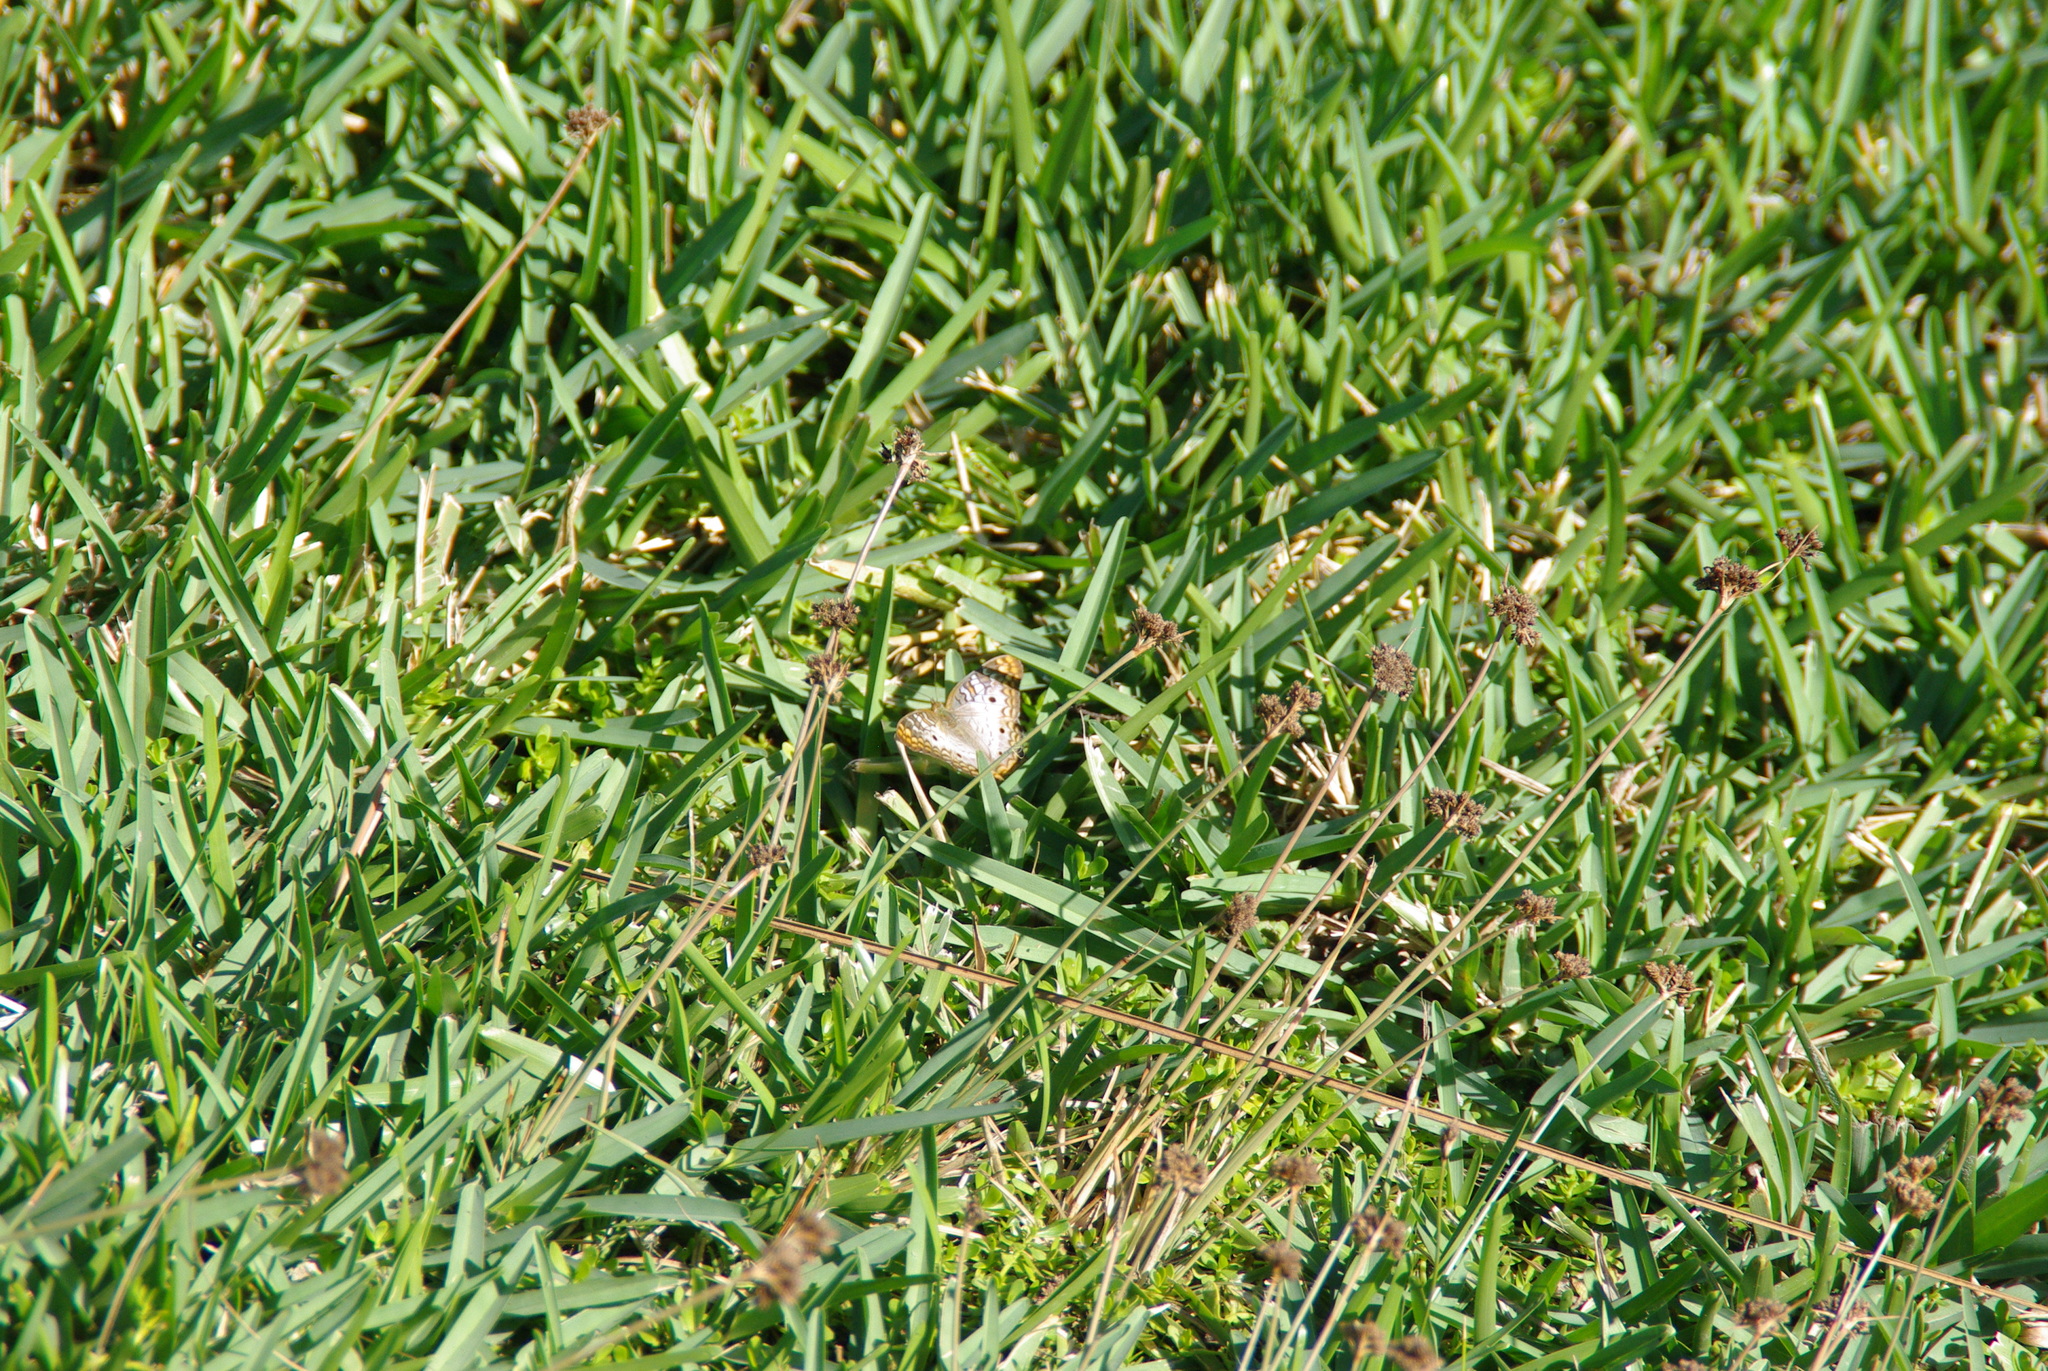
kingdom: Animalia
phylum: Arthropoda
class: Insecta
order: Lepidoptera
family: Nymphalidae
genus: Anartia
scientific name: Anartia jatrophae
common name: White peacock
